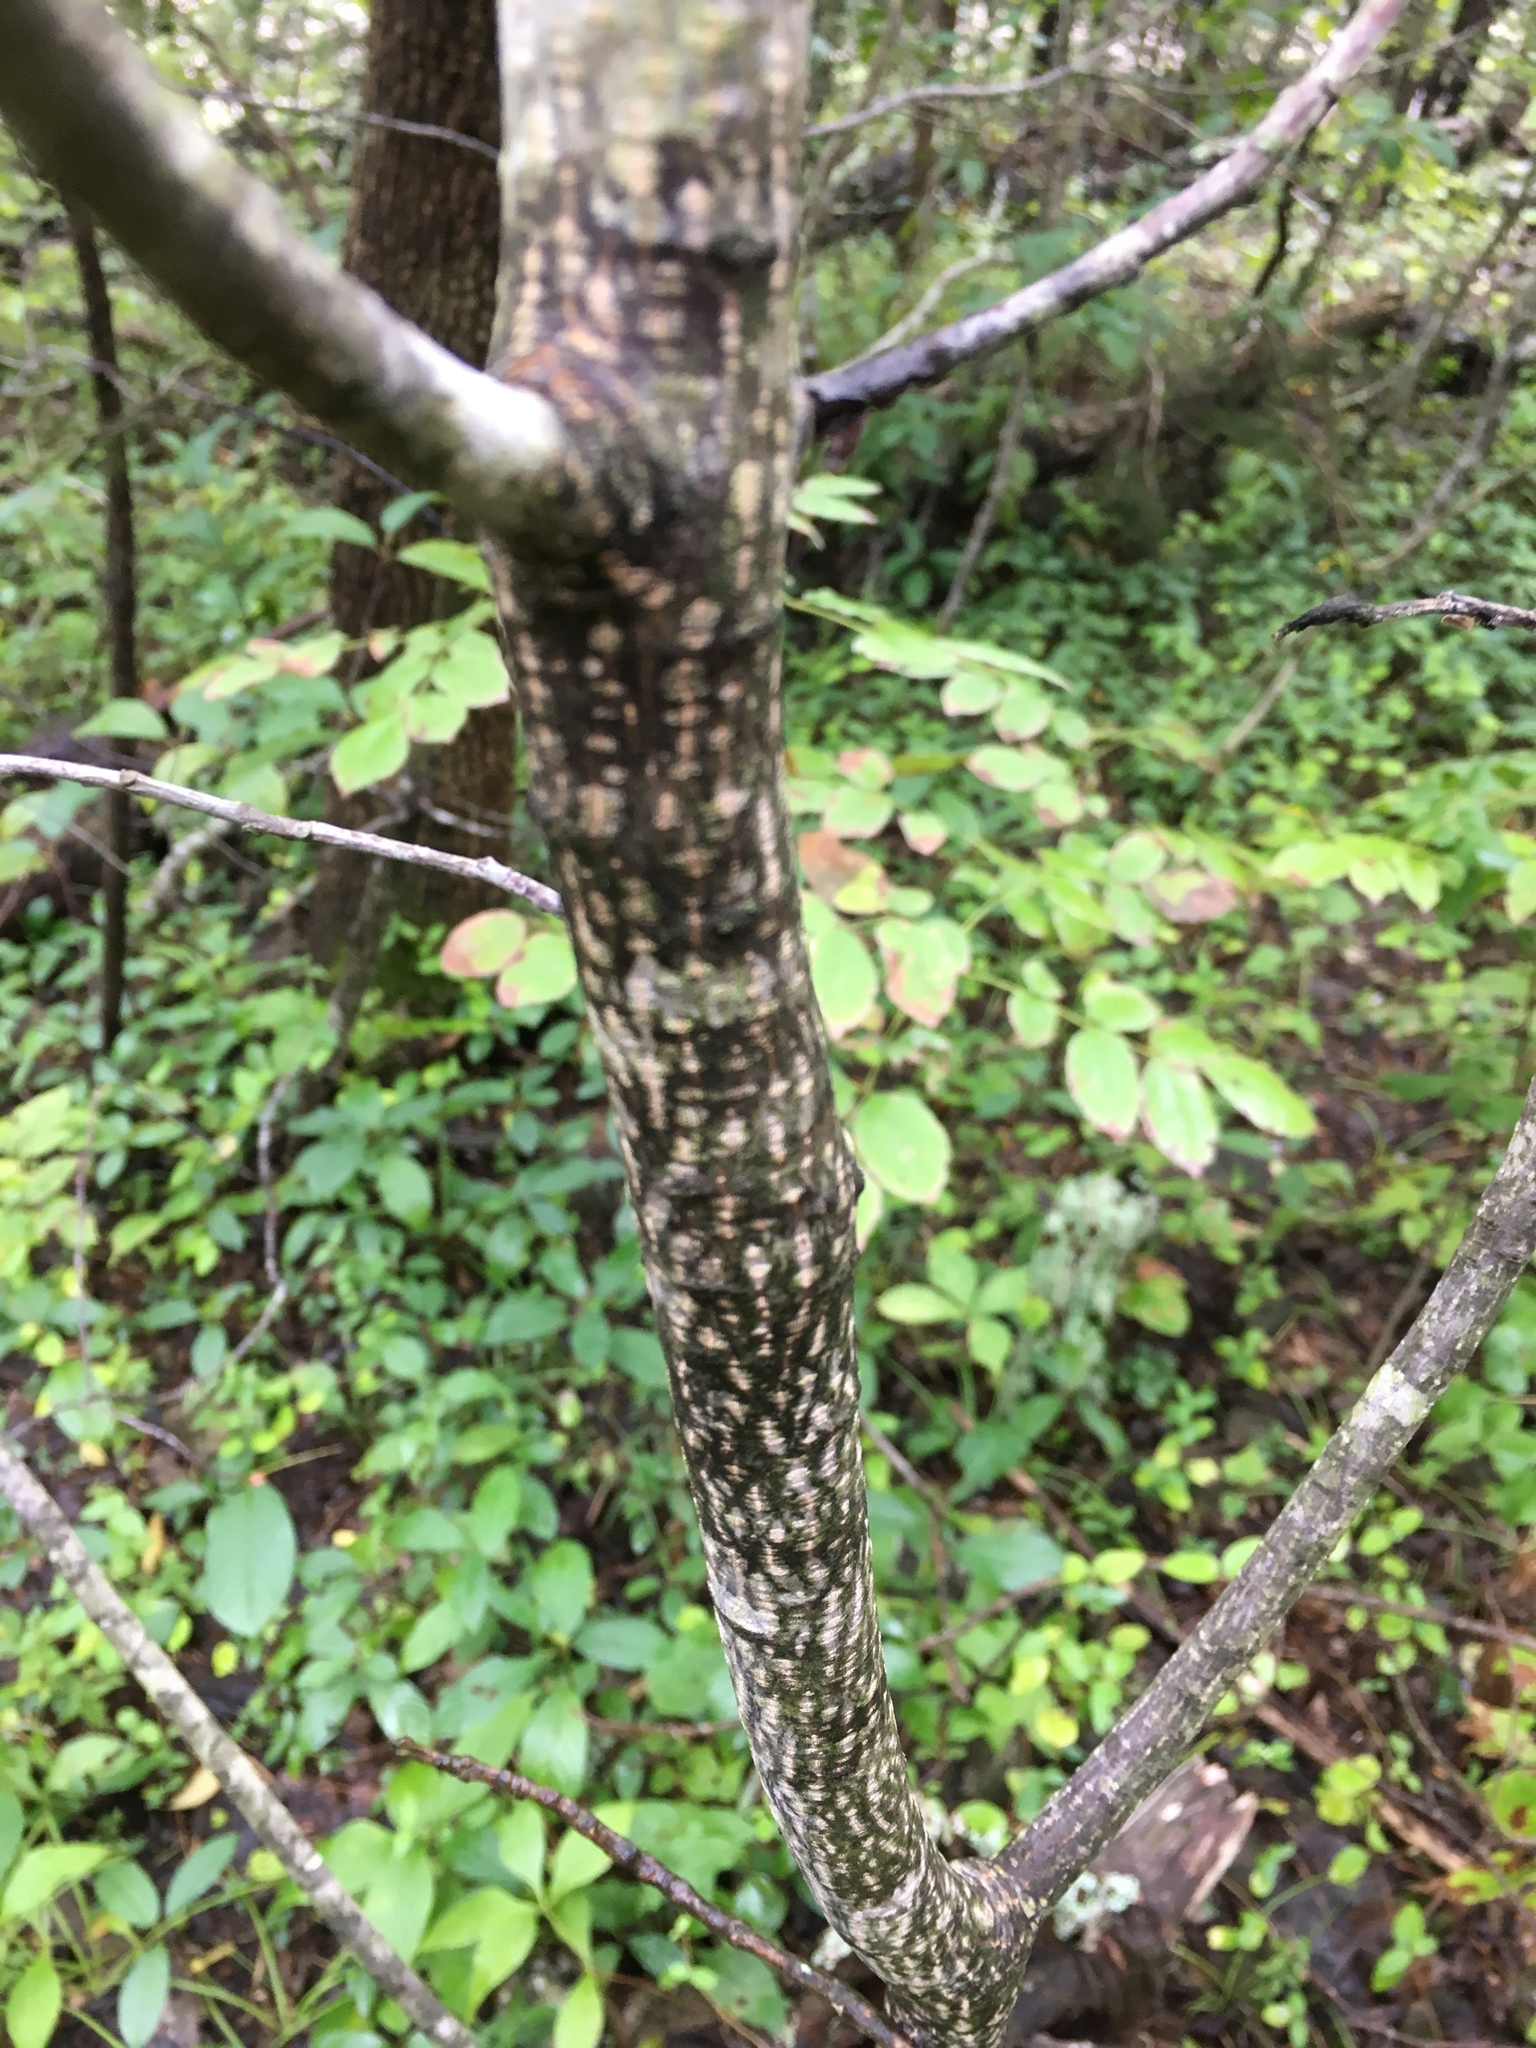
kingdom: Plantae
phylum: Tracheophyta
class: Magnoliopsida
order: Rosales
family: Rhamnaceae
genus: Frangula
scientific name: Frangula caroliniana
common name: Carolina buckthorn
